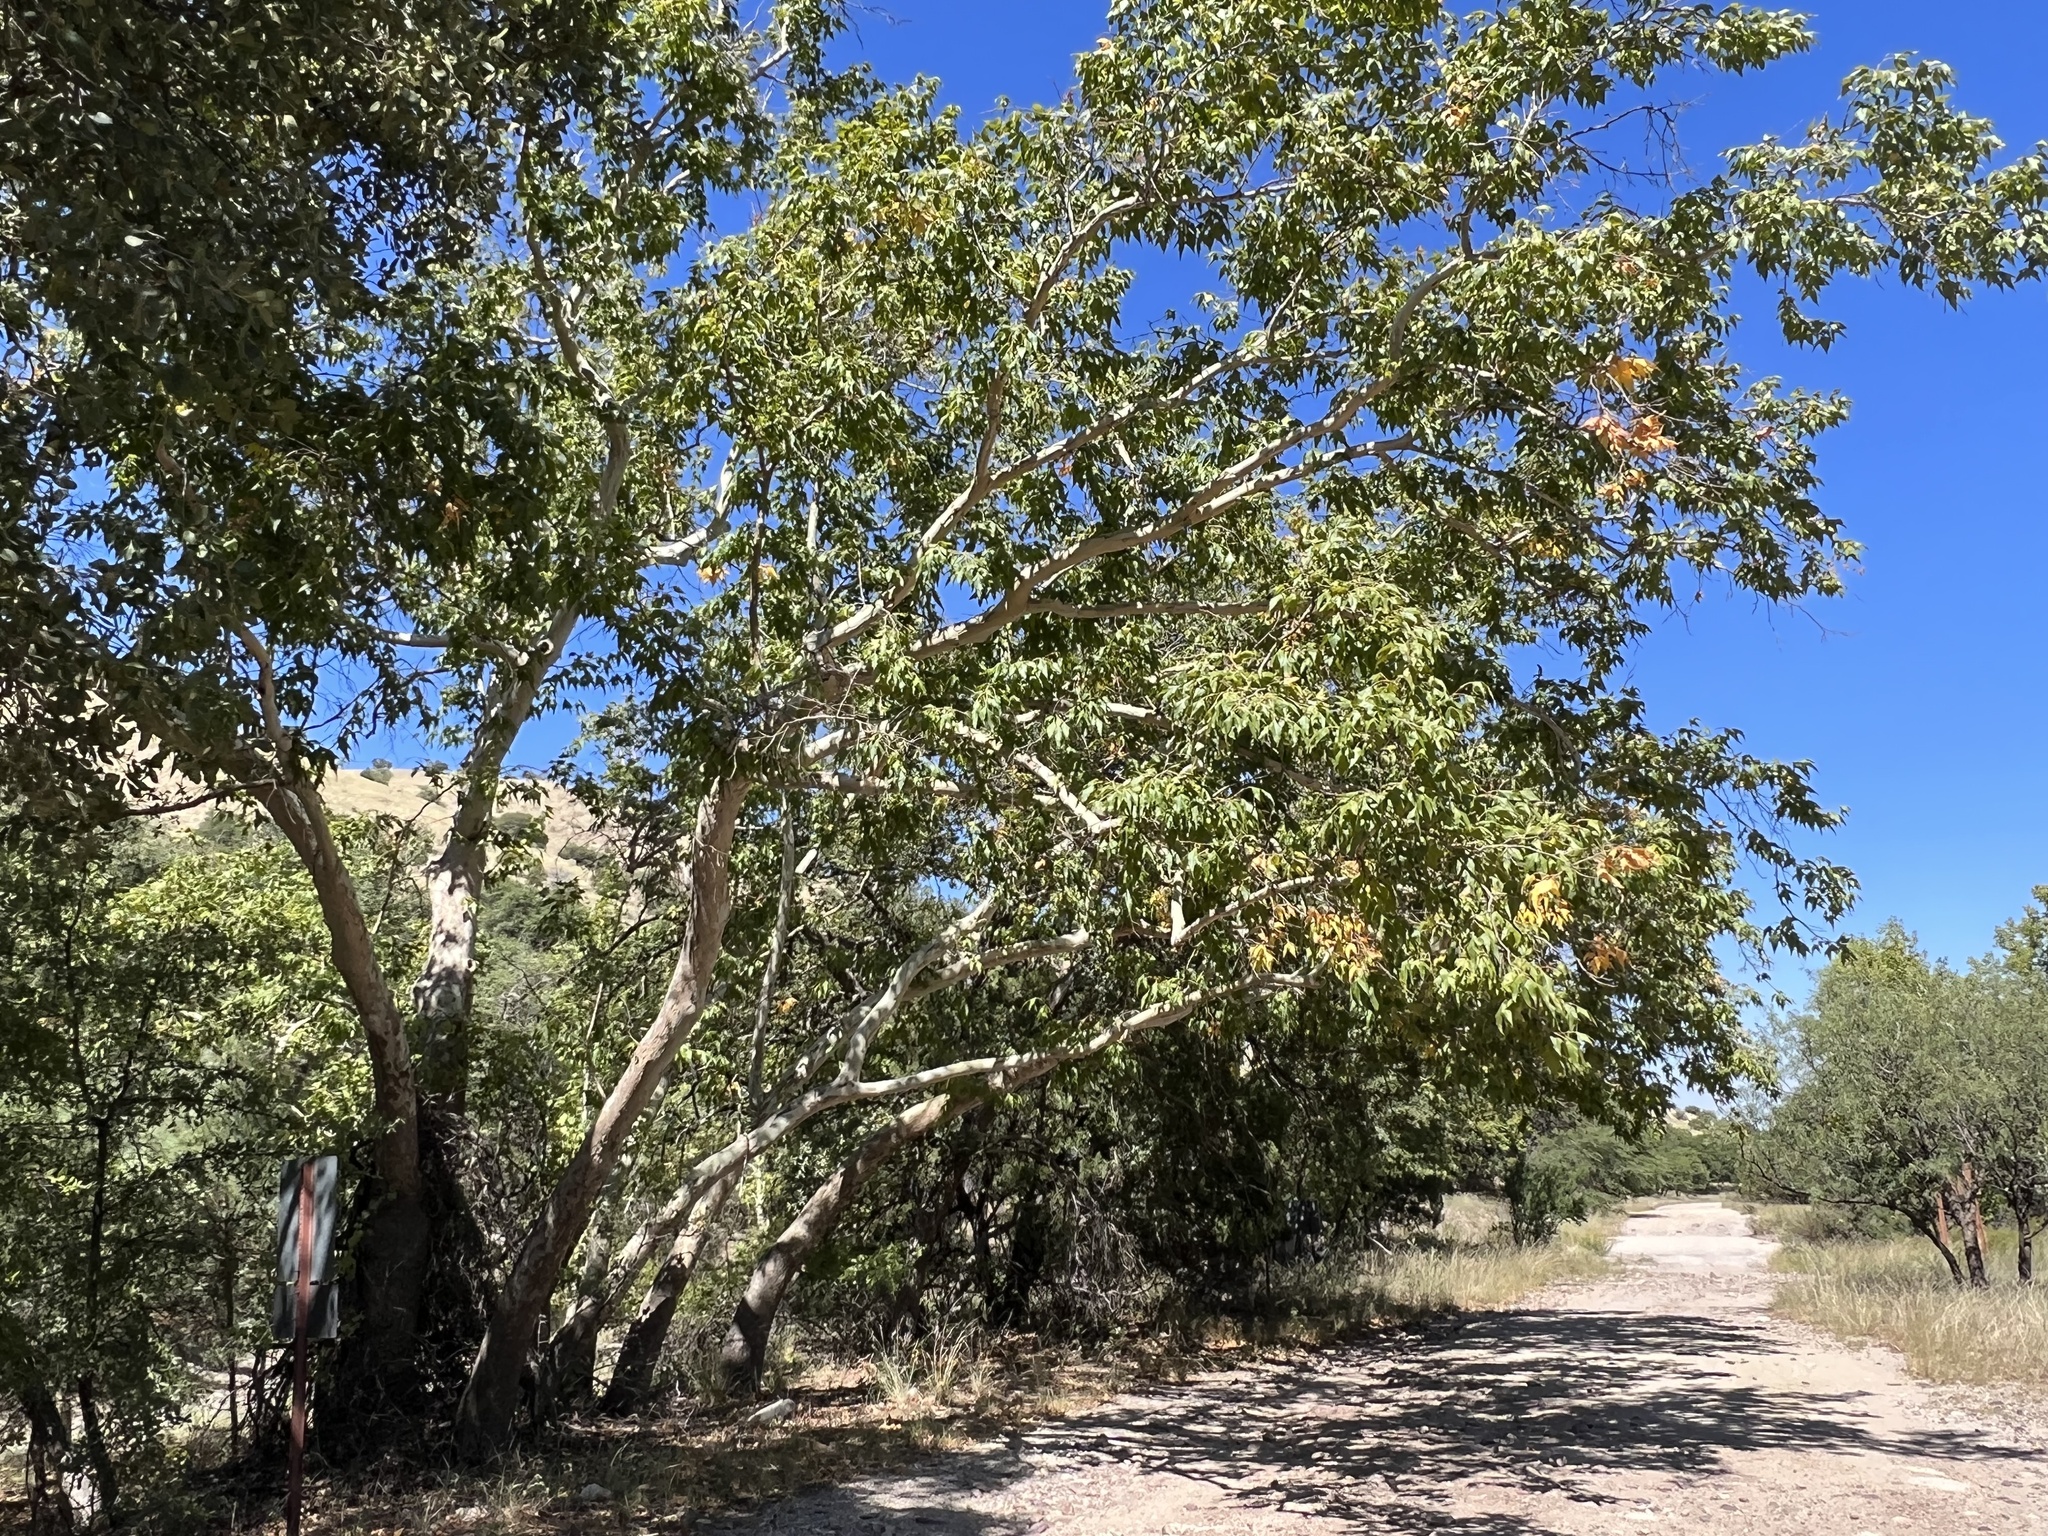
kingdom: Plantae
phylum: Tracheophyta
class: Magnoliopsida
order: Proteales
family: Platanaceae
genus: Platanus
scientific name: Platanus wrightii
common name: Arizona sycamore
